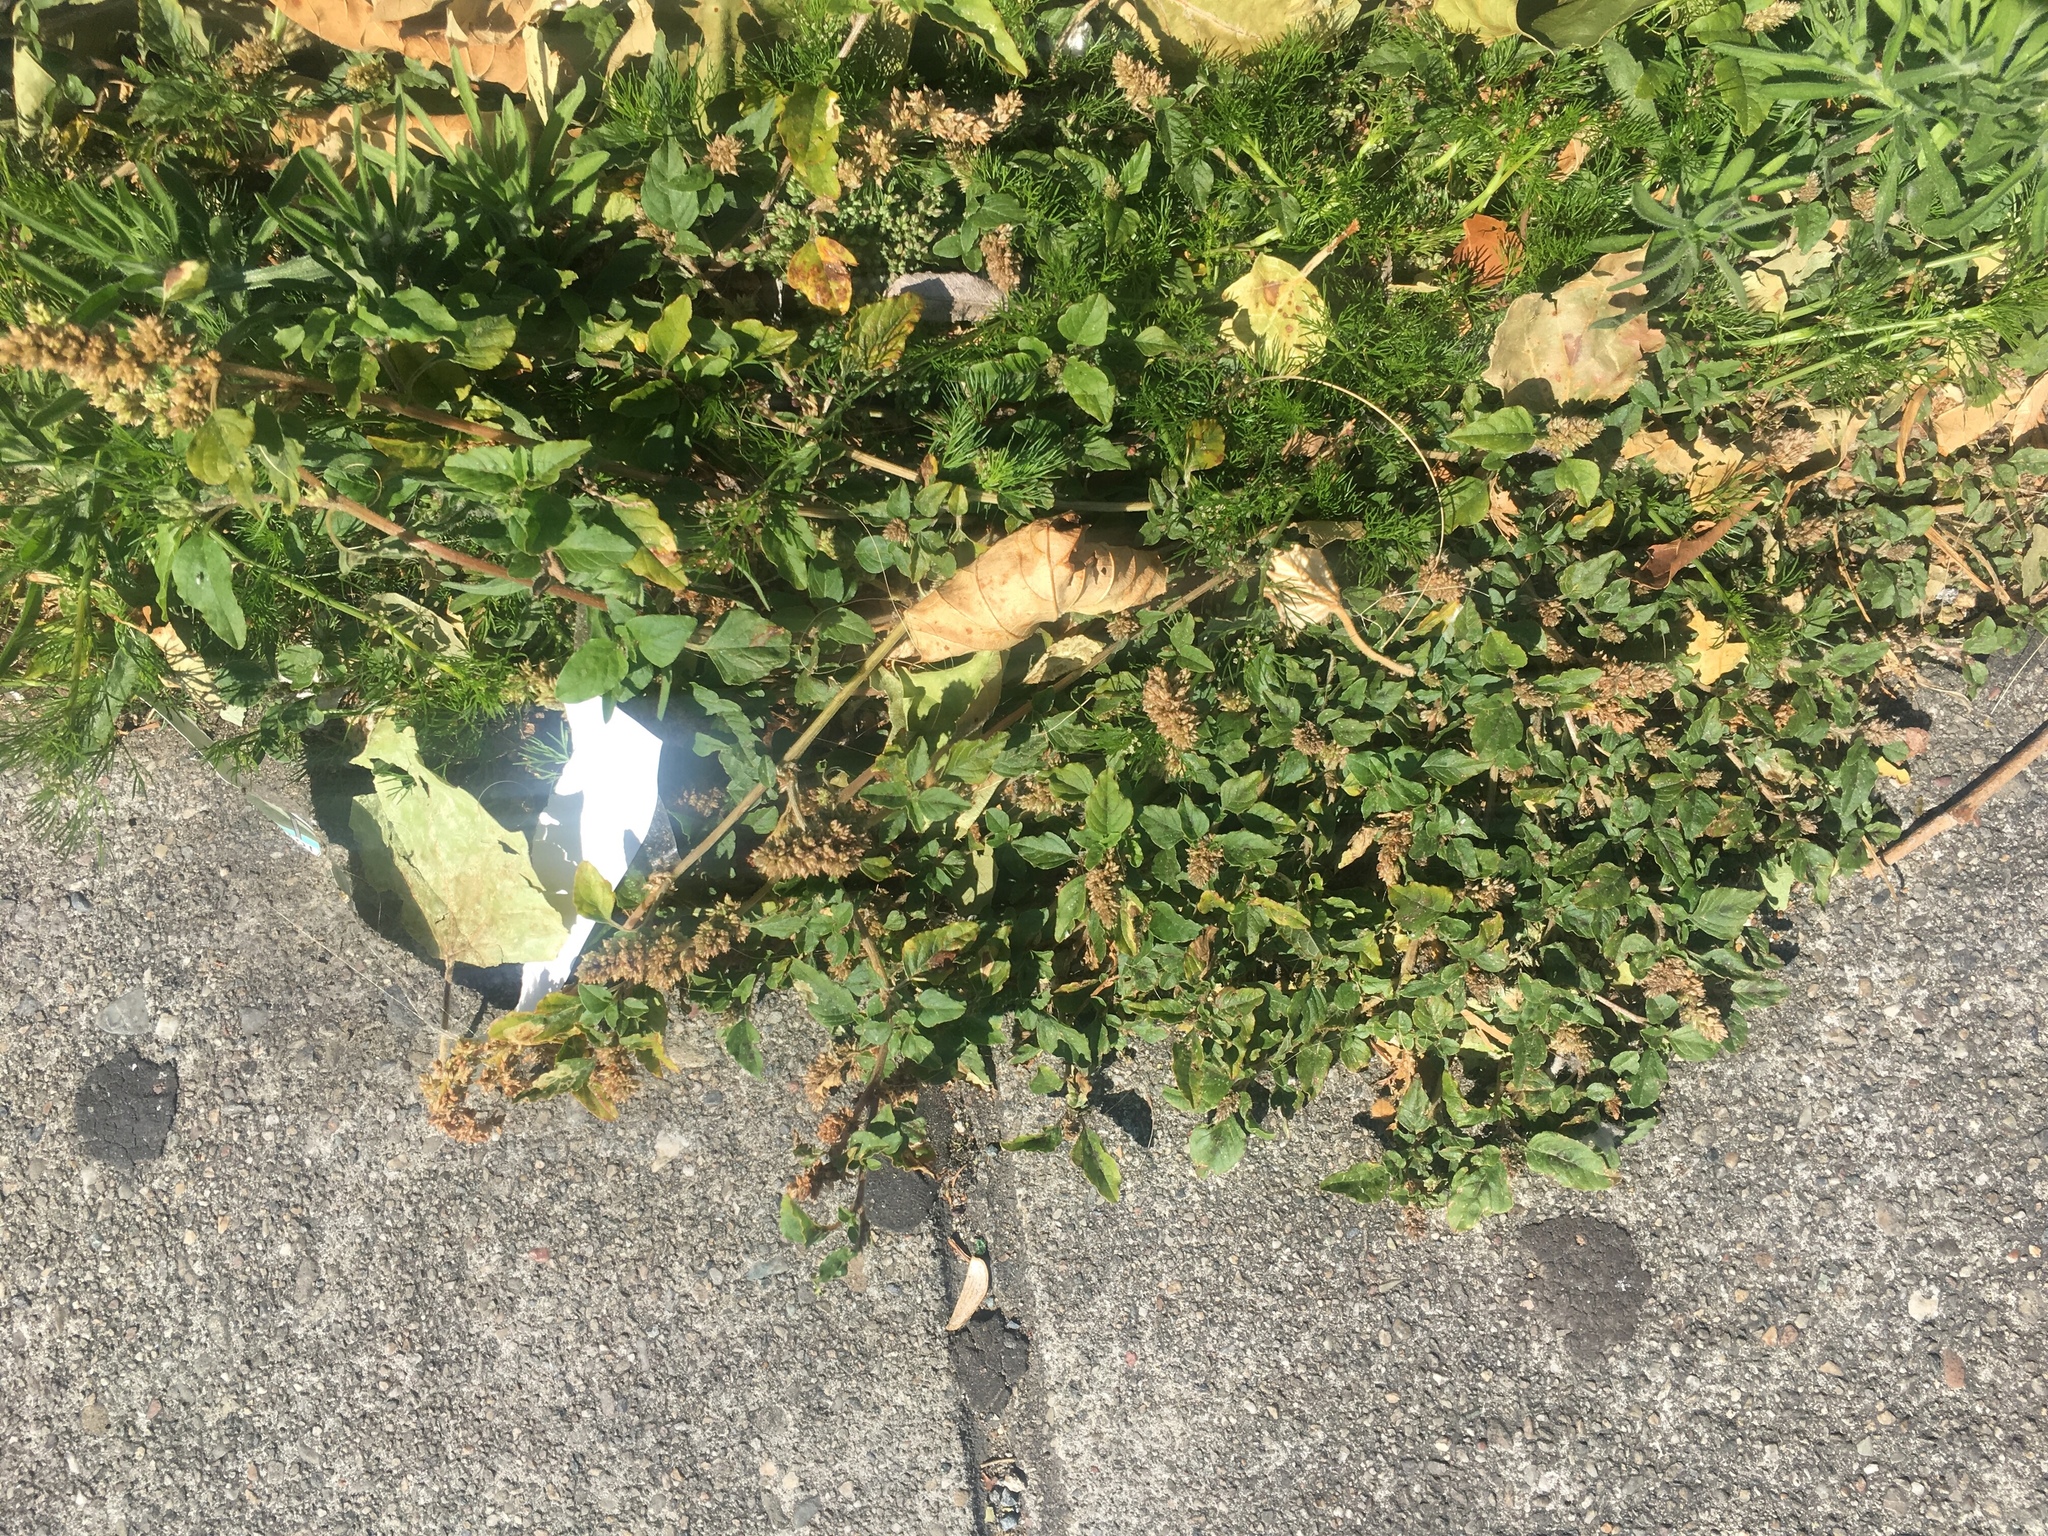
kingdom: Plantae
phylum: Tracheophyta
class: Magnoliopsida
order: Caryophyllales
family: Amaranthaceae
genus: Amaranthus
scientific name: Amaranthus deflexus
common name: Perennial pigweed
